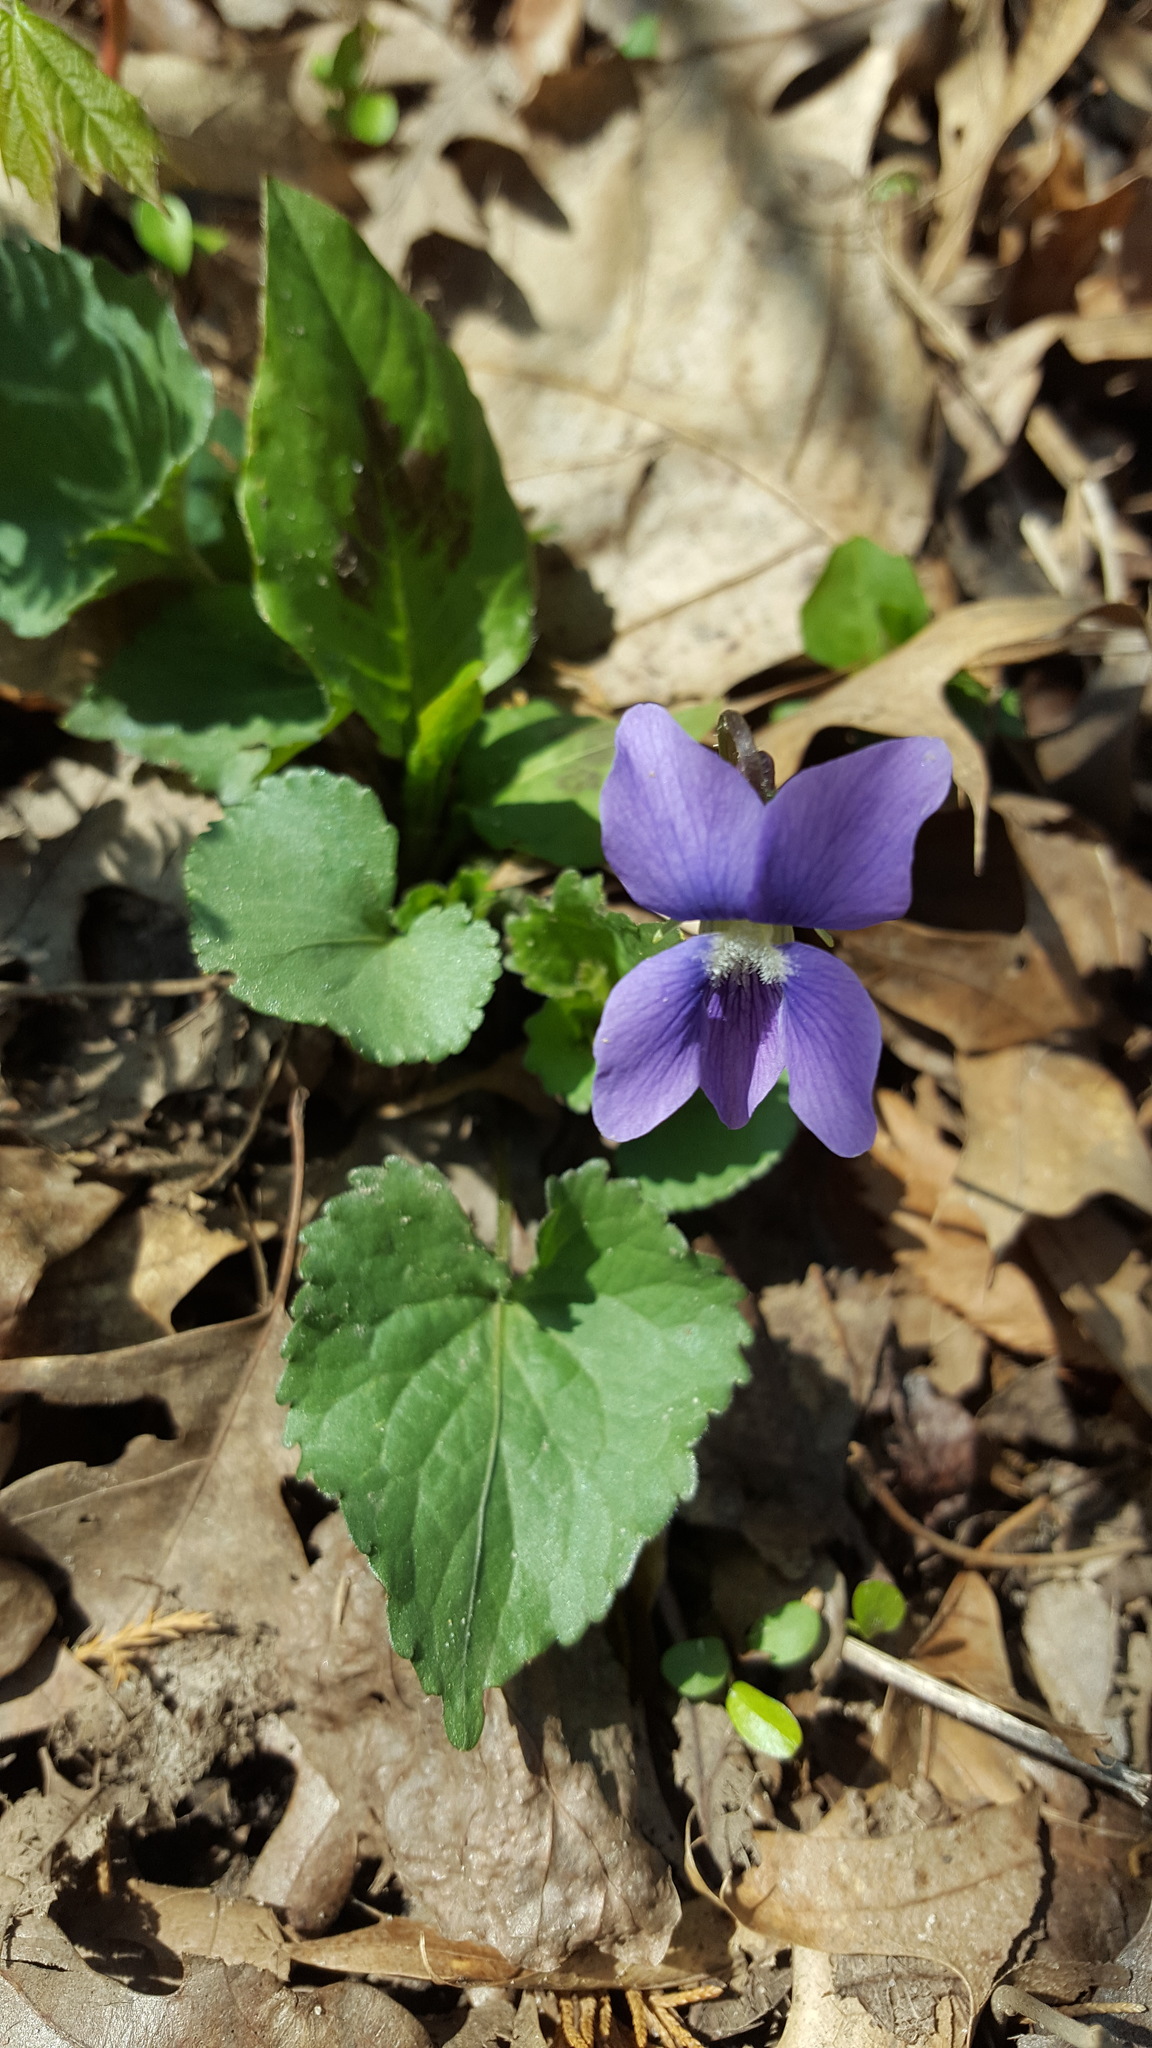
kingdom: Plantae
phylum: Tracheophyta
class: Magnoliopsida
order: Malpighiales
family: Violaceae
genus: Viola
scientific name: Viola sororia
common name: Dooryard violet
